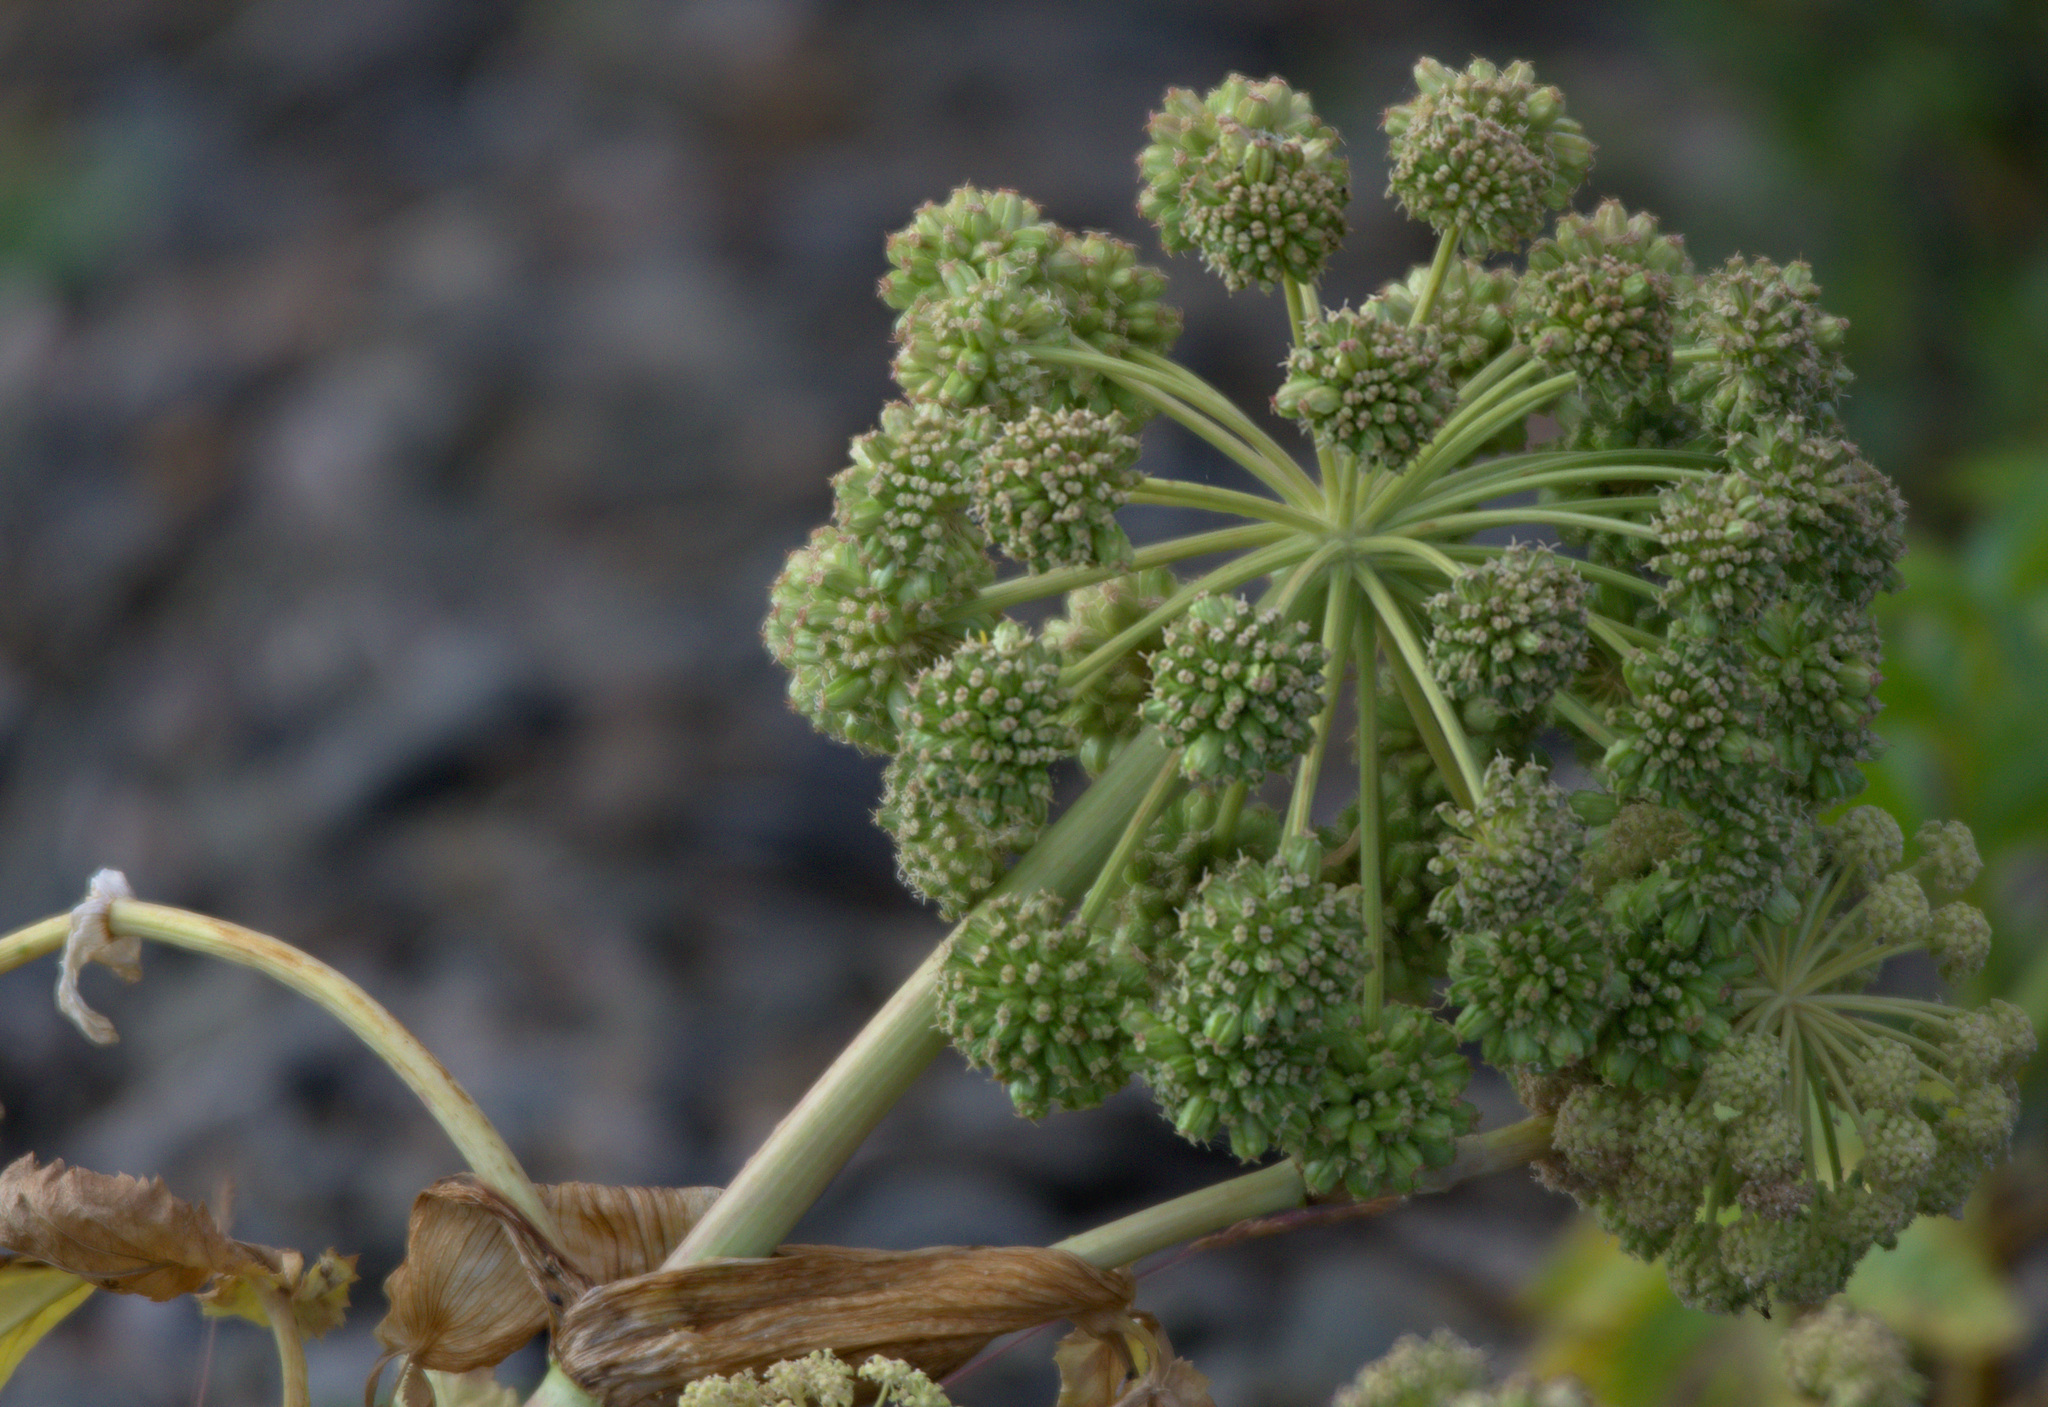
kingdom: Plantae
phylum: Tracheophyta
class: Magnoliopsida
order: Apiales
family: Apiaceae
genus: Angelica
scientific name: Angelica decurrens
